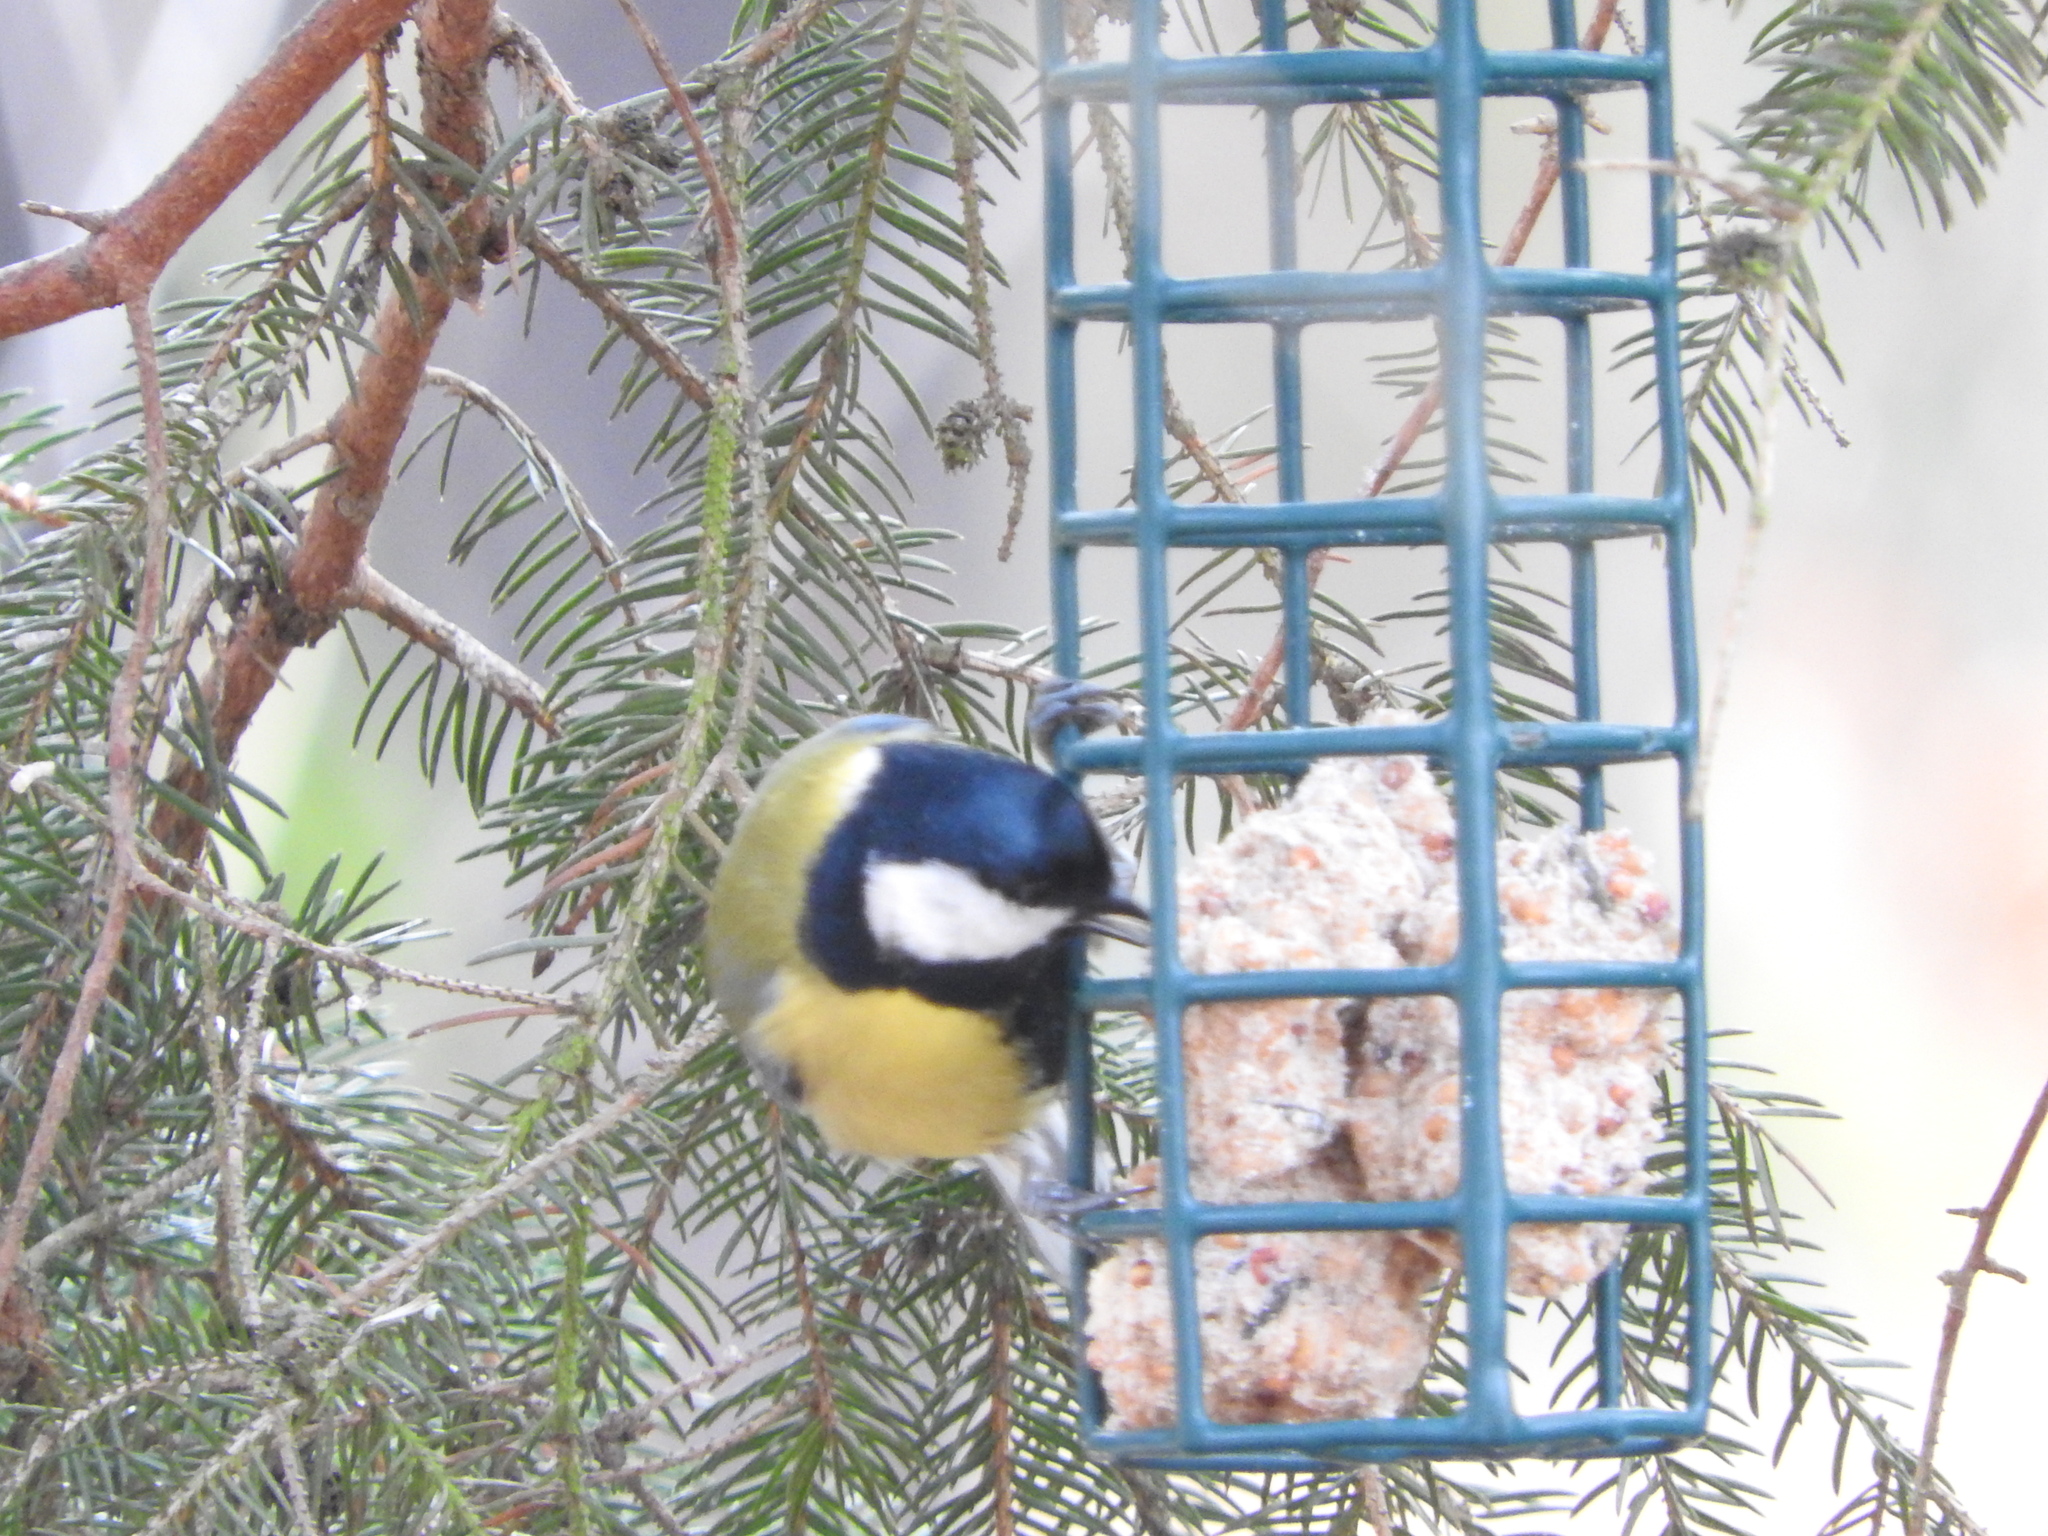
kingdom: Animalia
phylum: Chordata
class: Aves
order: Passeriformes
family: Paridae
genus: Parus
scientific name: Parus major
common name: Great tit
